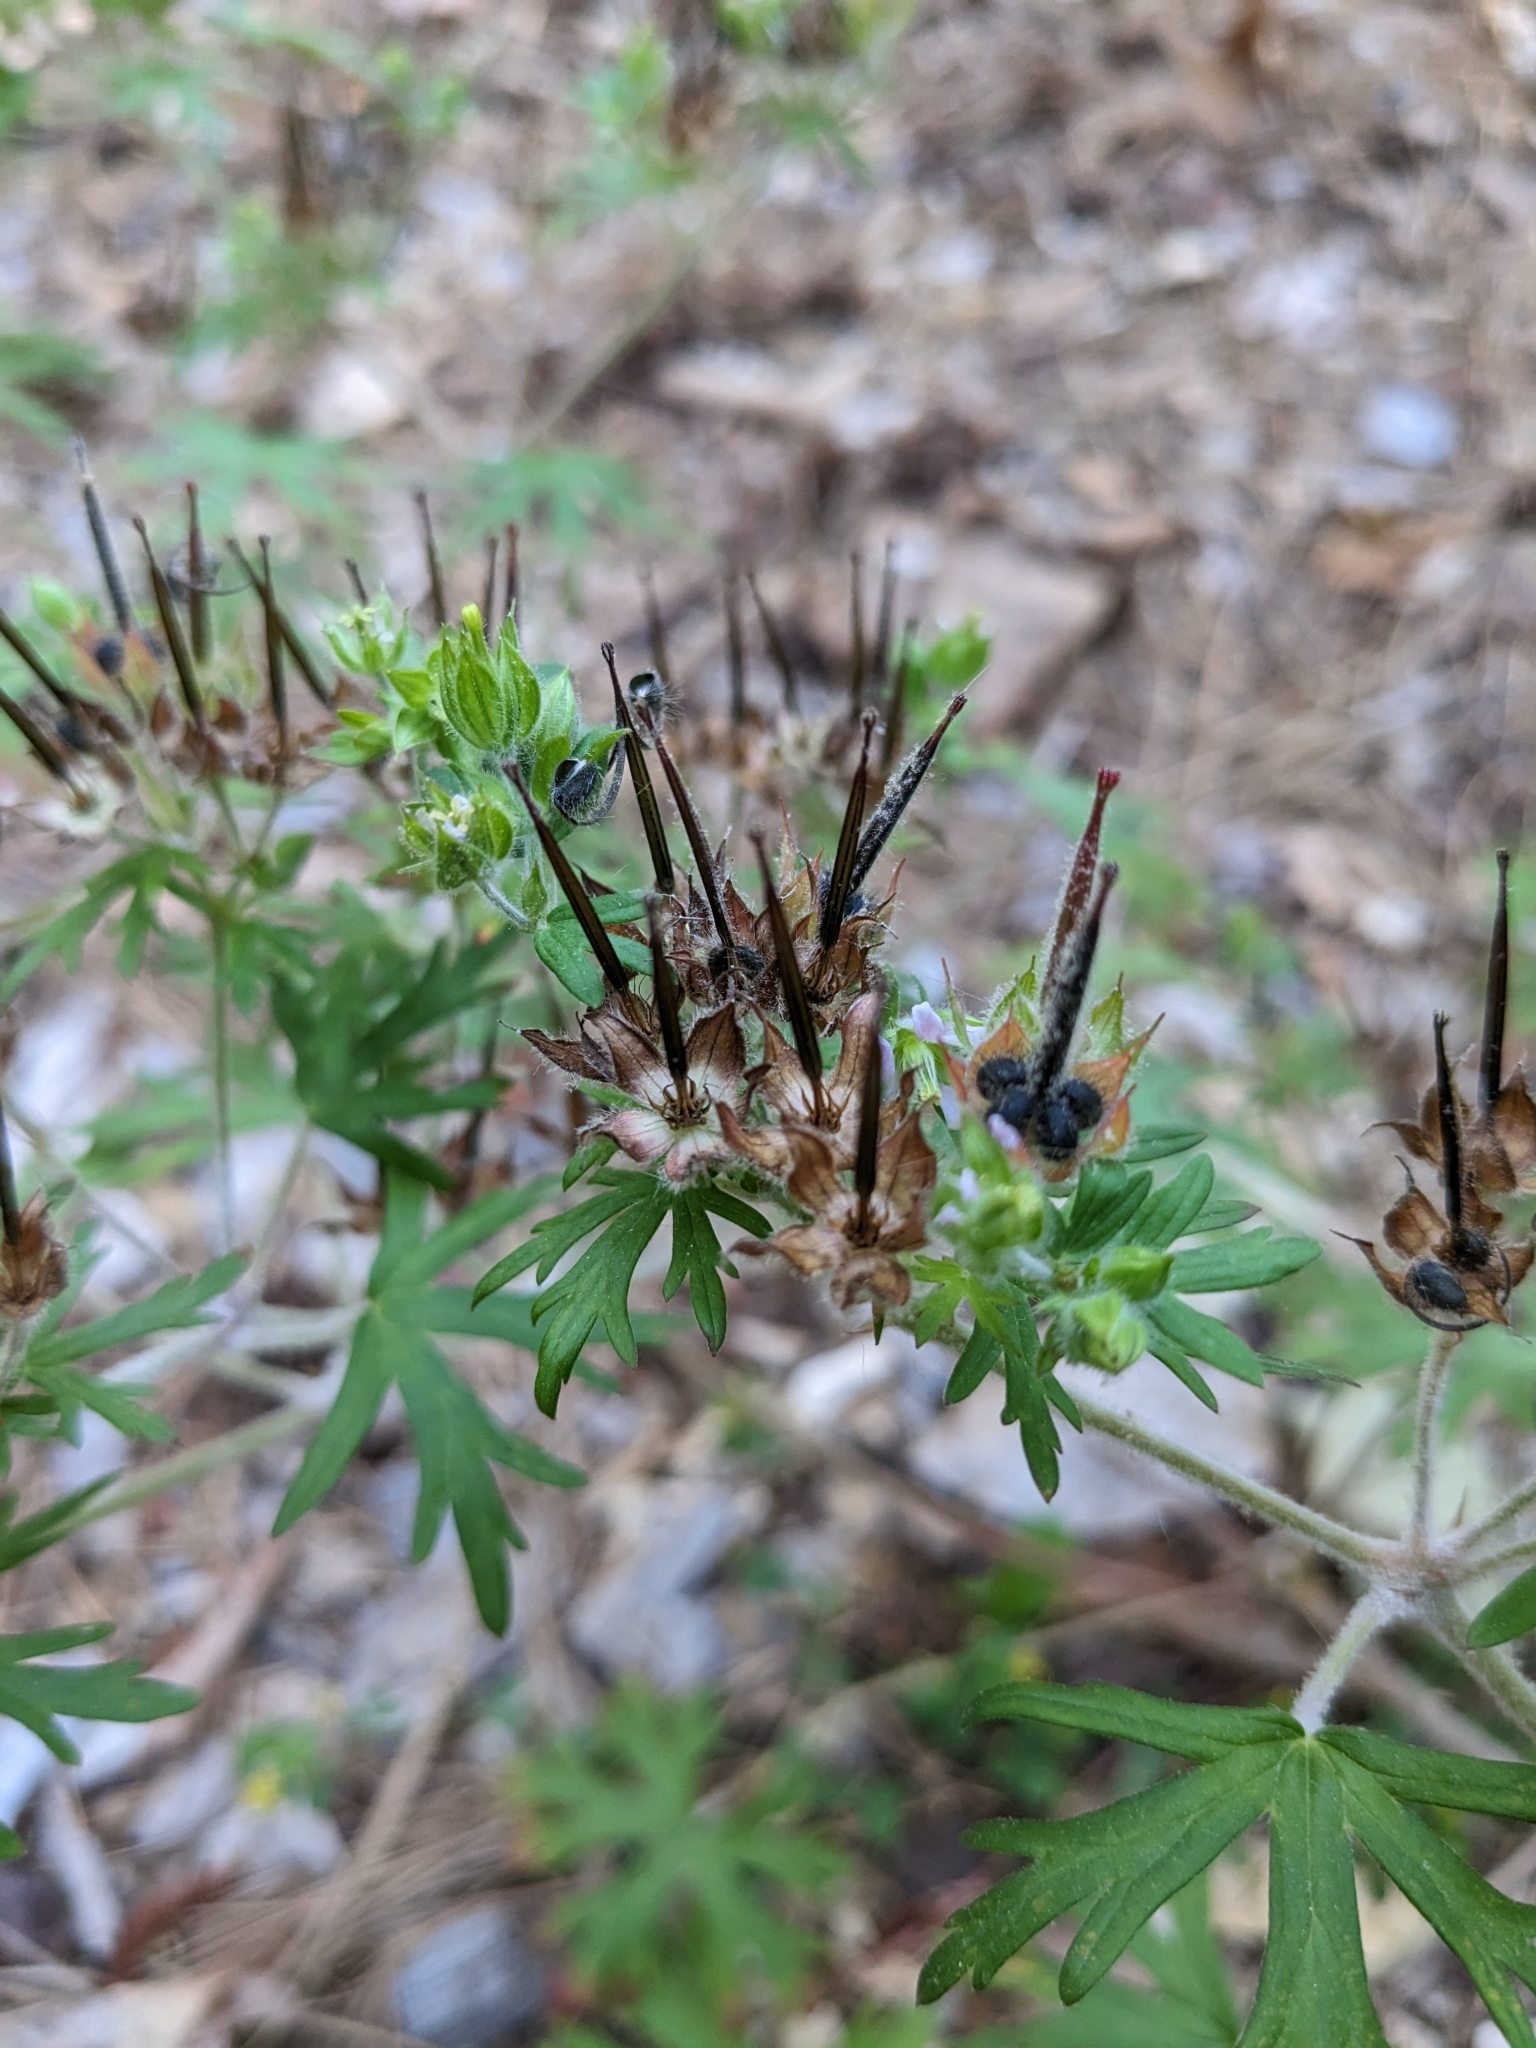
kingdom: Plantae
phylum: Tracheophyta
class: Magnoliopsida
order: Geraniales
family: Geraniaceae
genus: Geranium
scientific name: Geranium carolinianum
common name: Carolina crane's-bill
